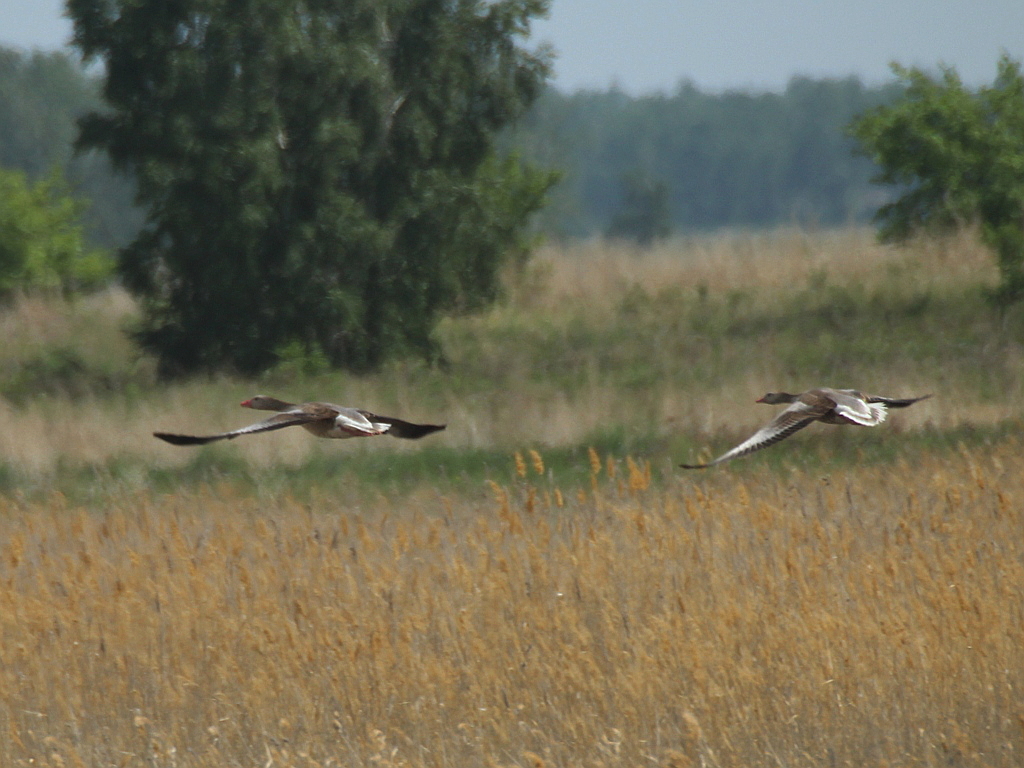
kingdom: Animalia
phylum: Chordata
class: Aves
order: Anseriformes
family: Anatidae
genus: Anser
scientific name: Anser anser
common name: Greylag goose
